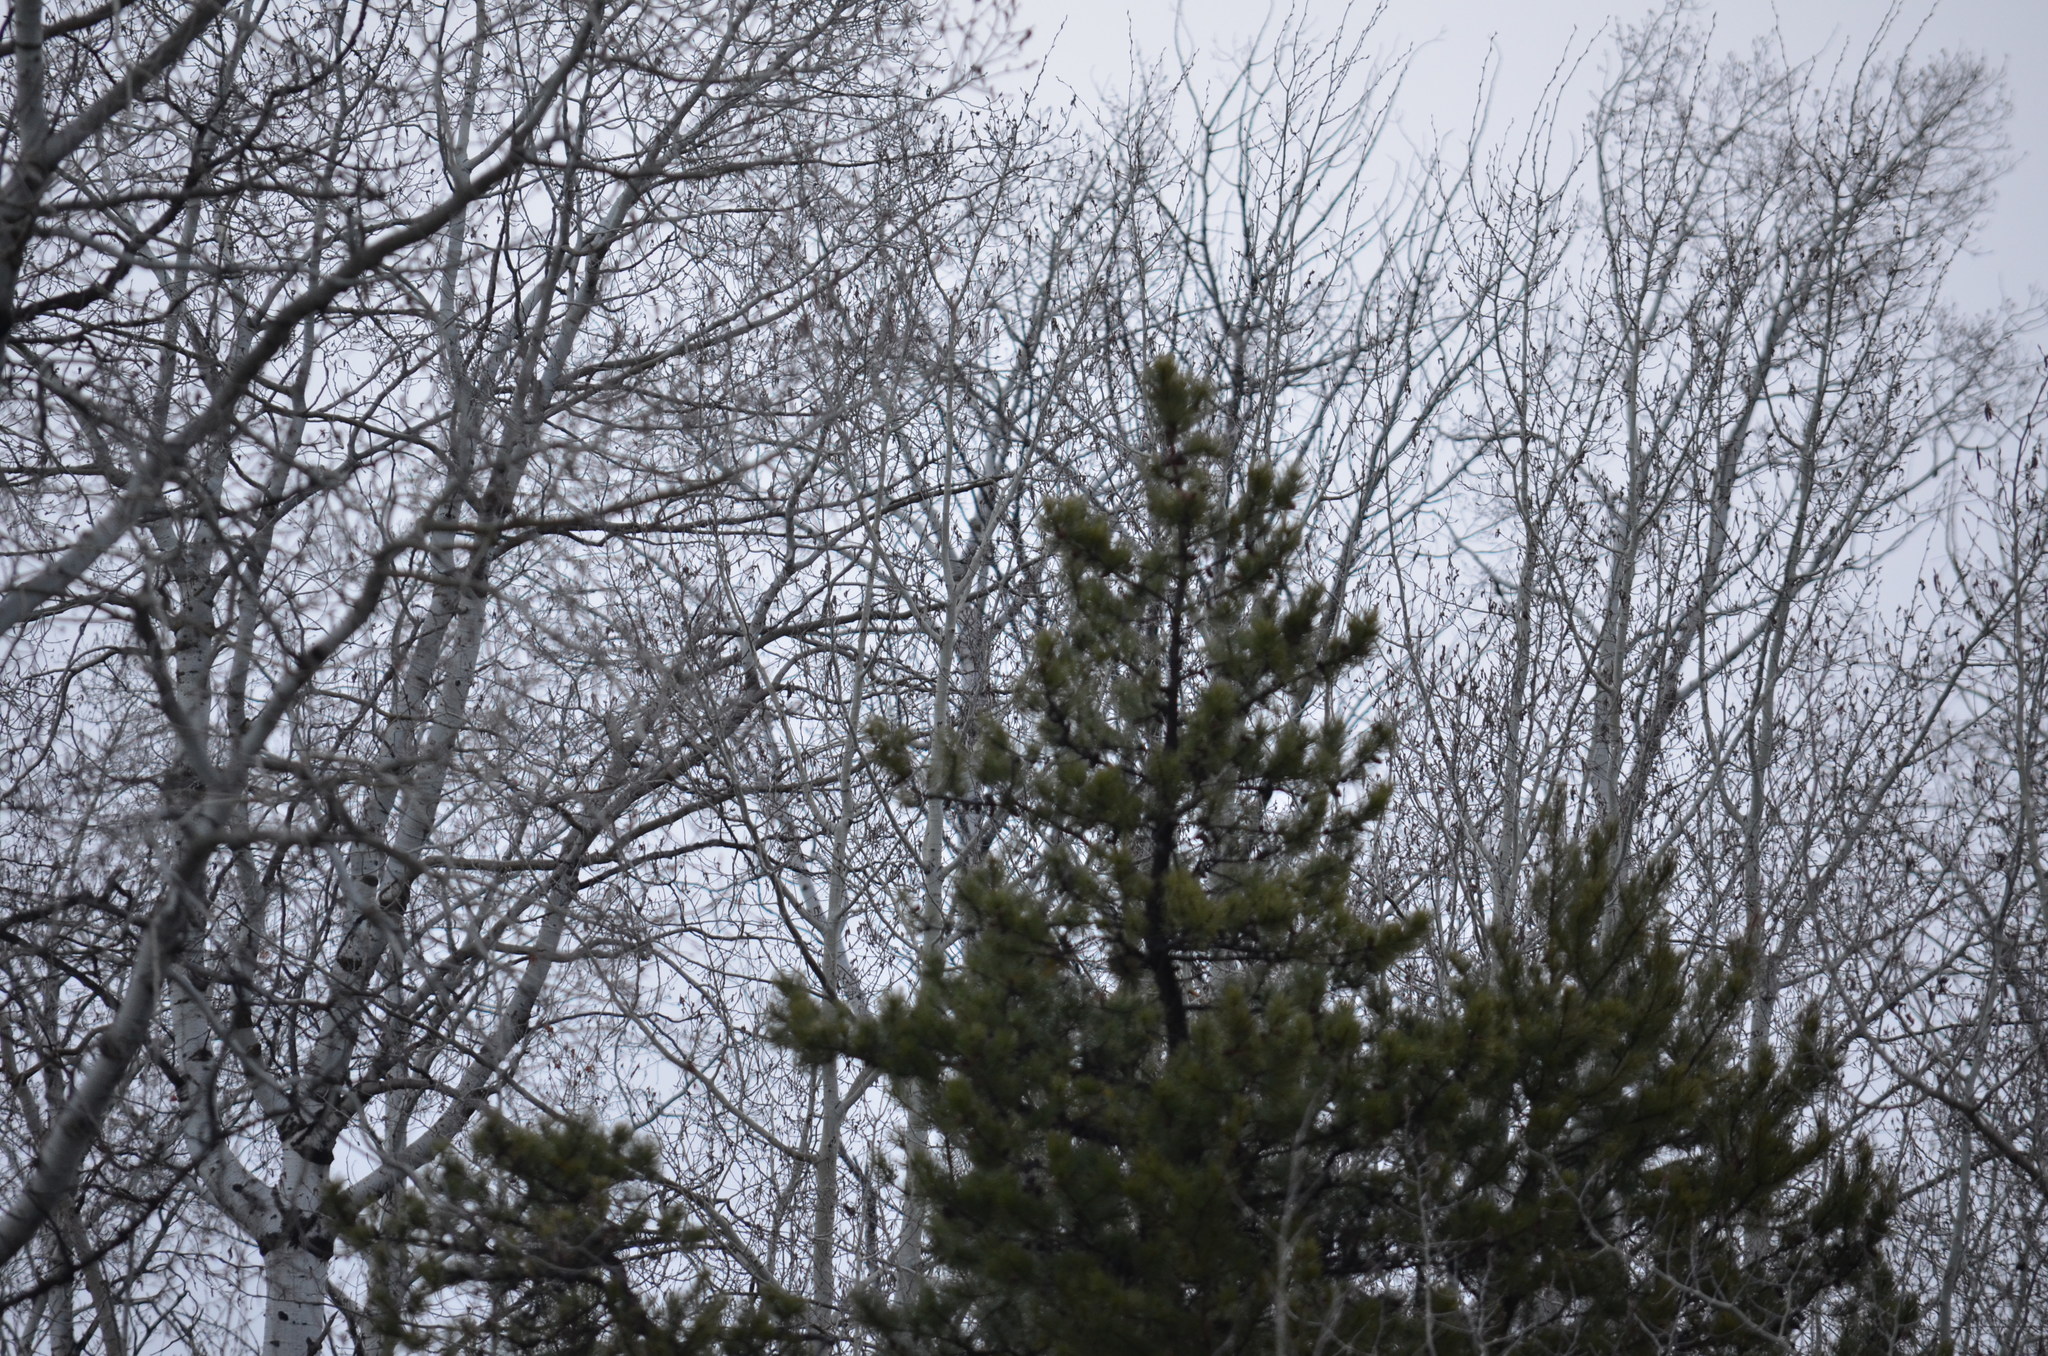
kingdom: Plantae
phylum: Tracheophyta
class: Pinopsida
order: Pinales
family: Pinaceae
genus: Pinus
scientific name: Pinus contorta
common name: Lodgepole pine
